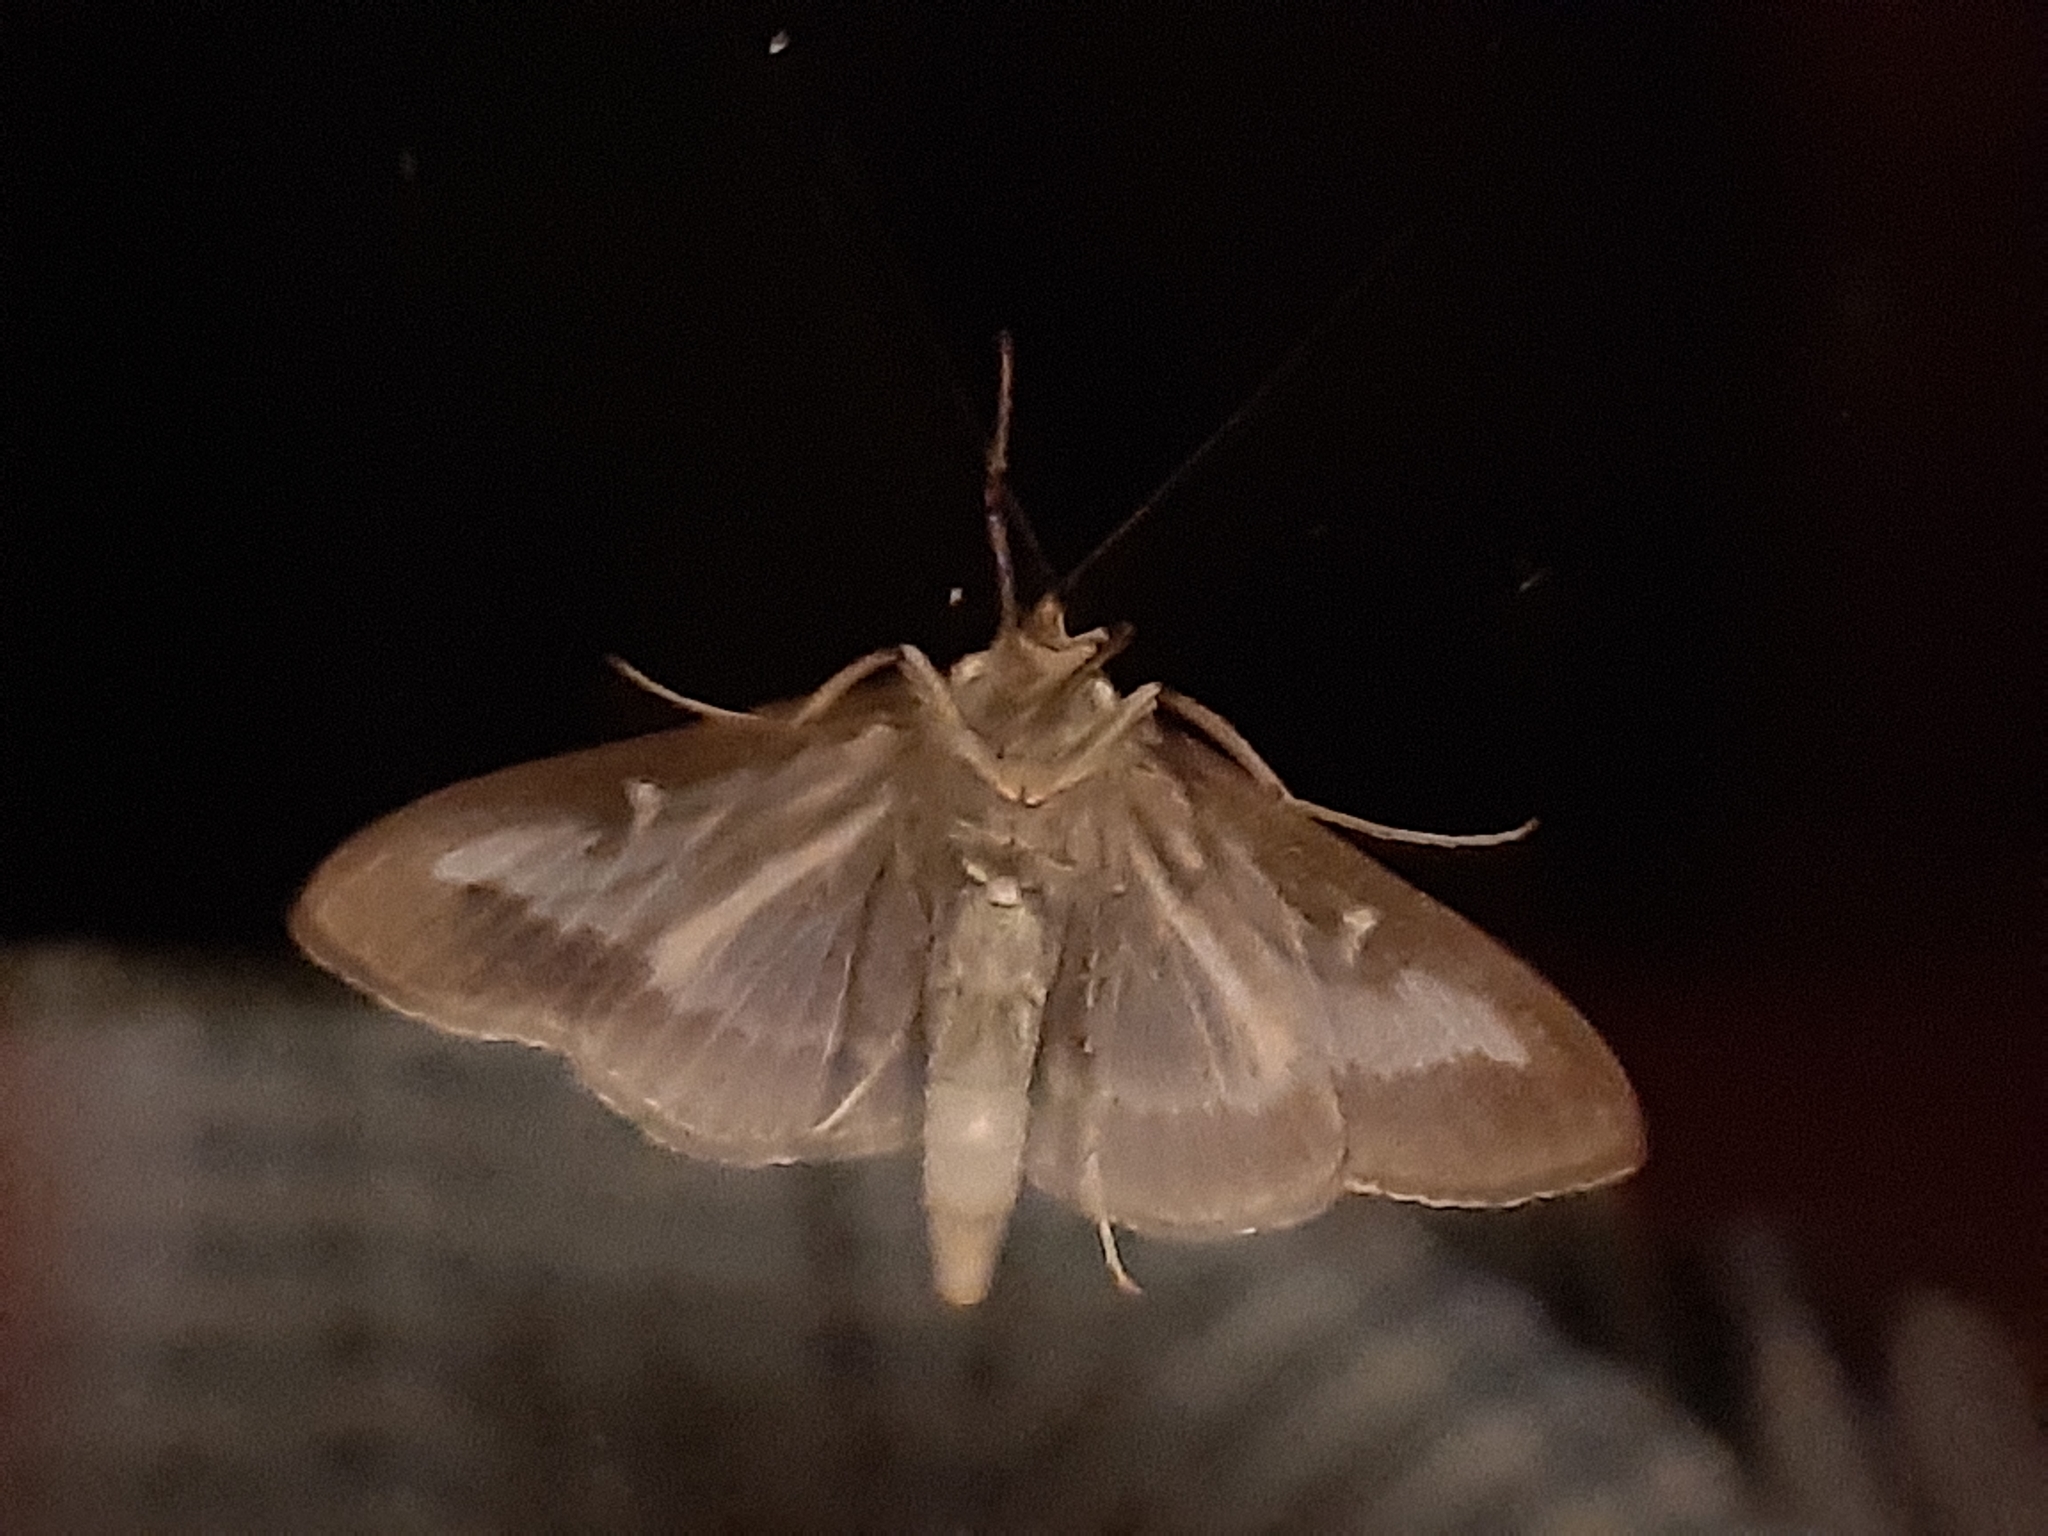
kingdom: Animalia
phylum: Arthropoda
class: Insecta
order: Lepidoptera
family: Crambidae
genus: Cydalima
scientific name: Cydalima perspectalis
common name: Box tree moth
